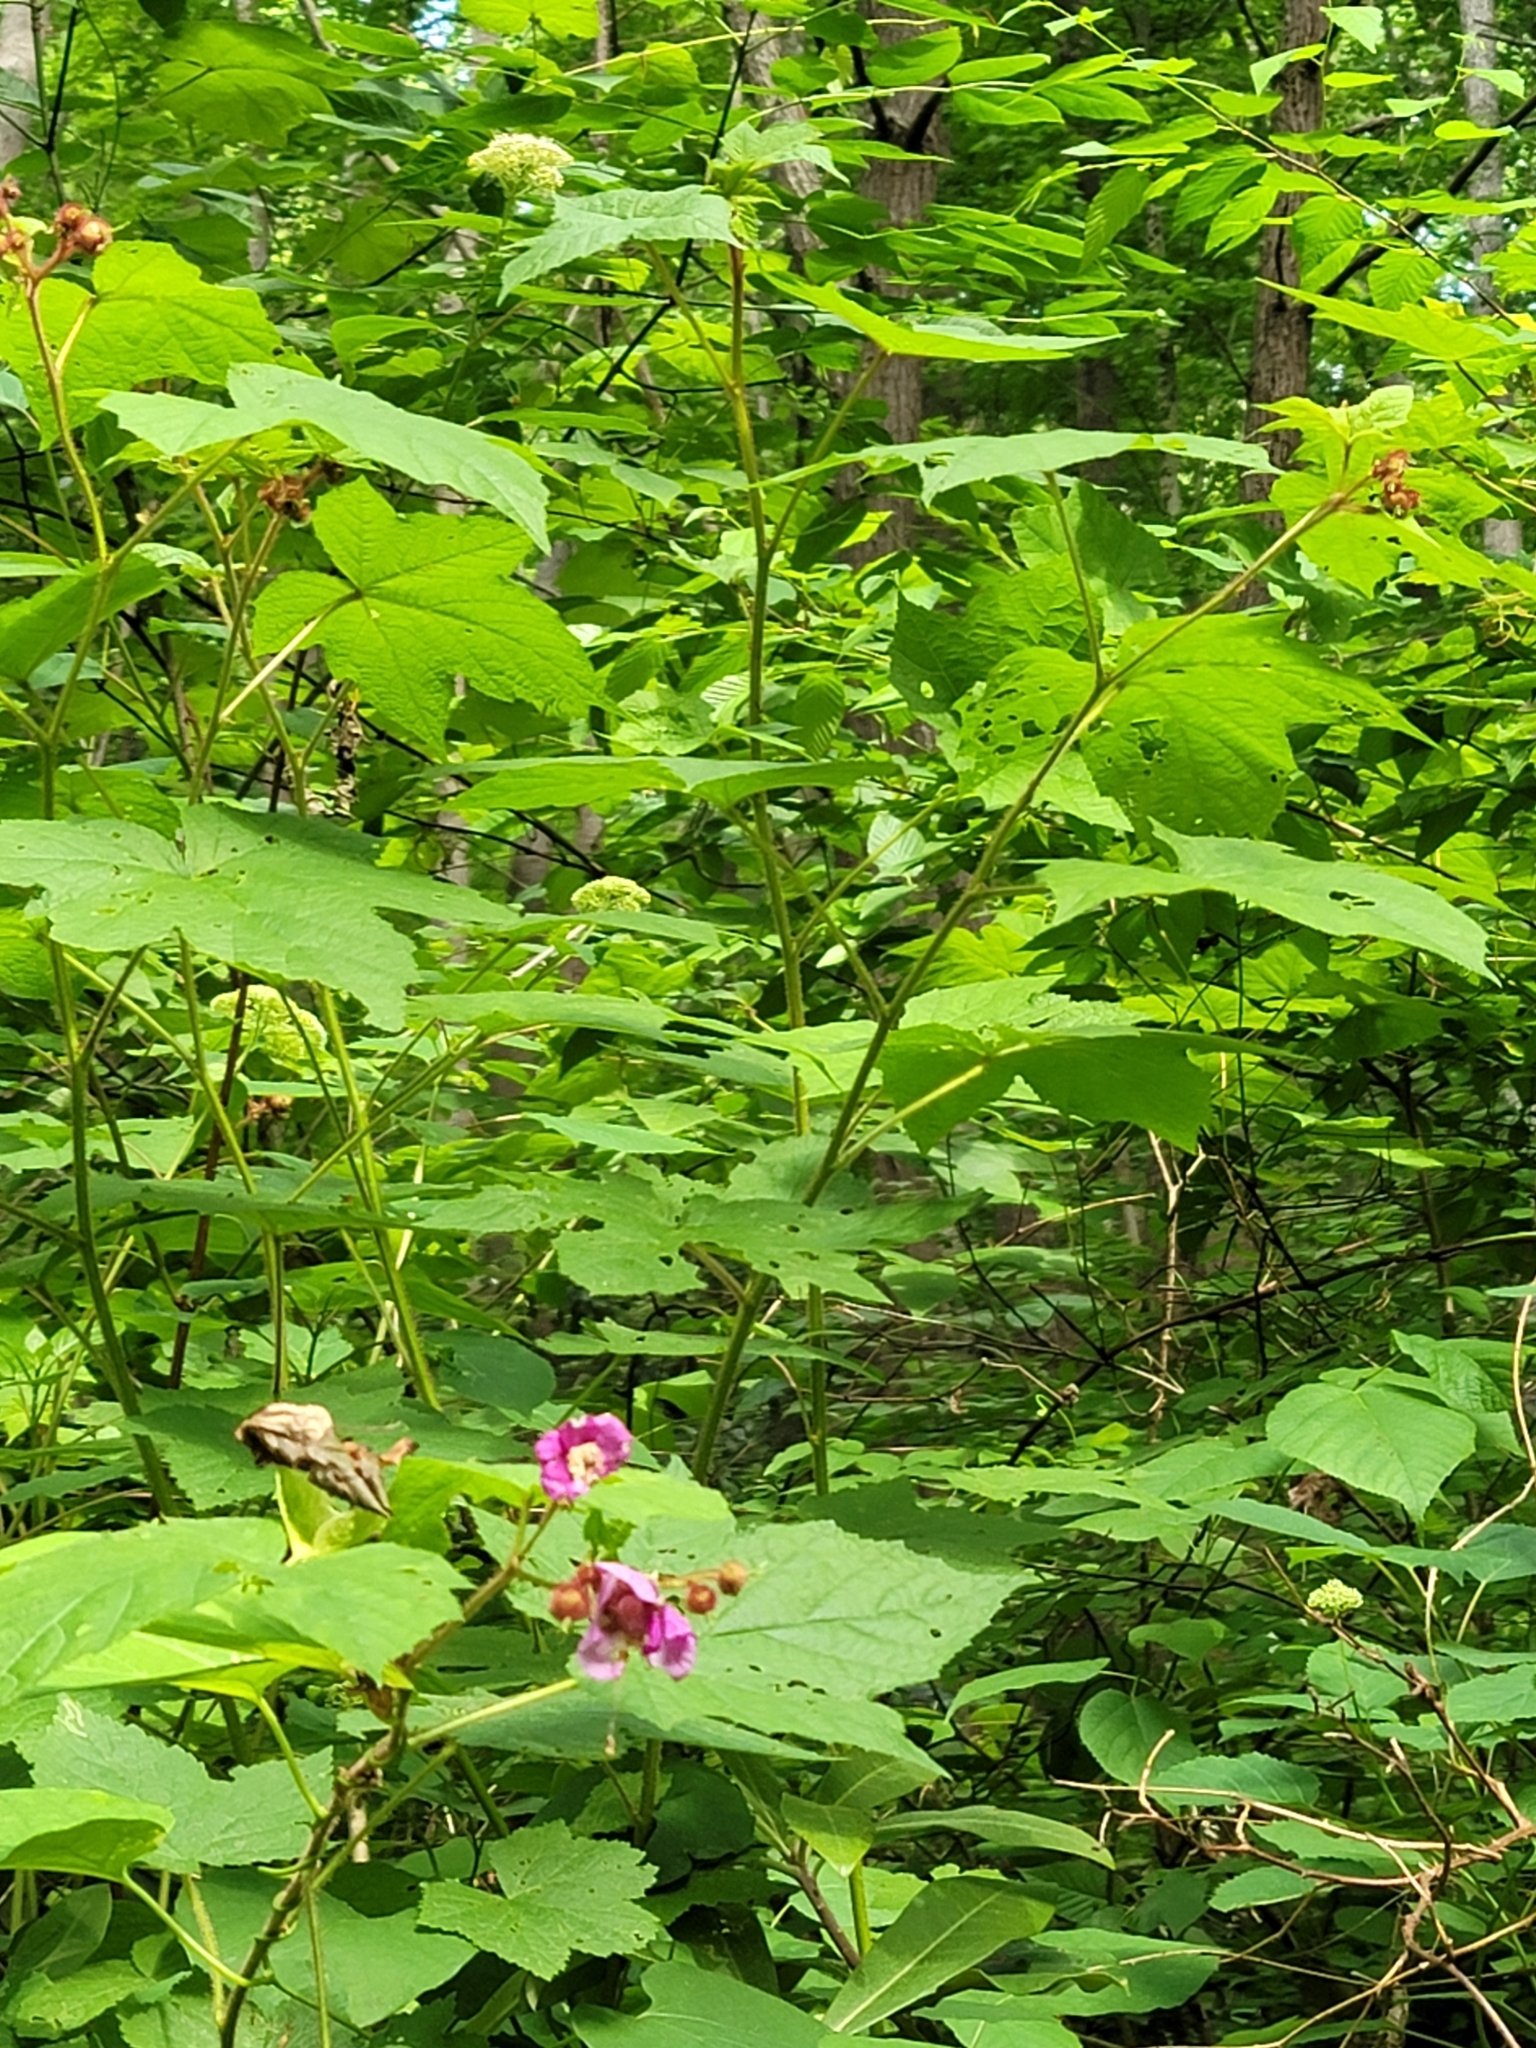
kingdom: Plantae
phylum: Tracheophyta
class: Magnoliopsida
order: Rosales
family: Rosaceae
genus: Rubus
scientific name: Rubus odoratus
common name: Purple-flowered raspberry
